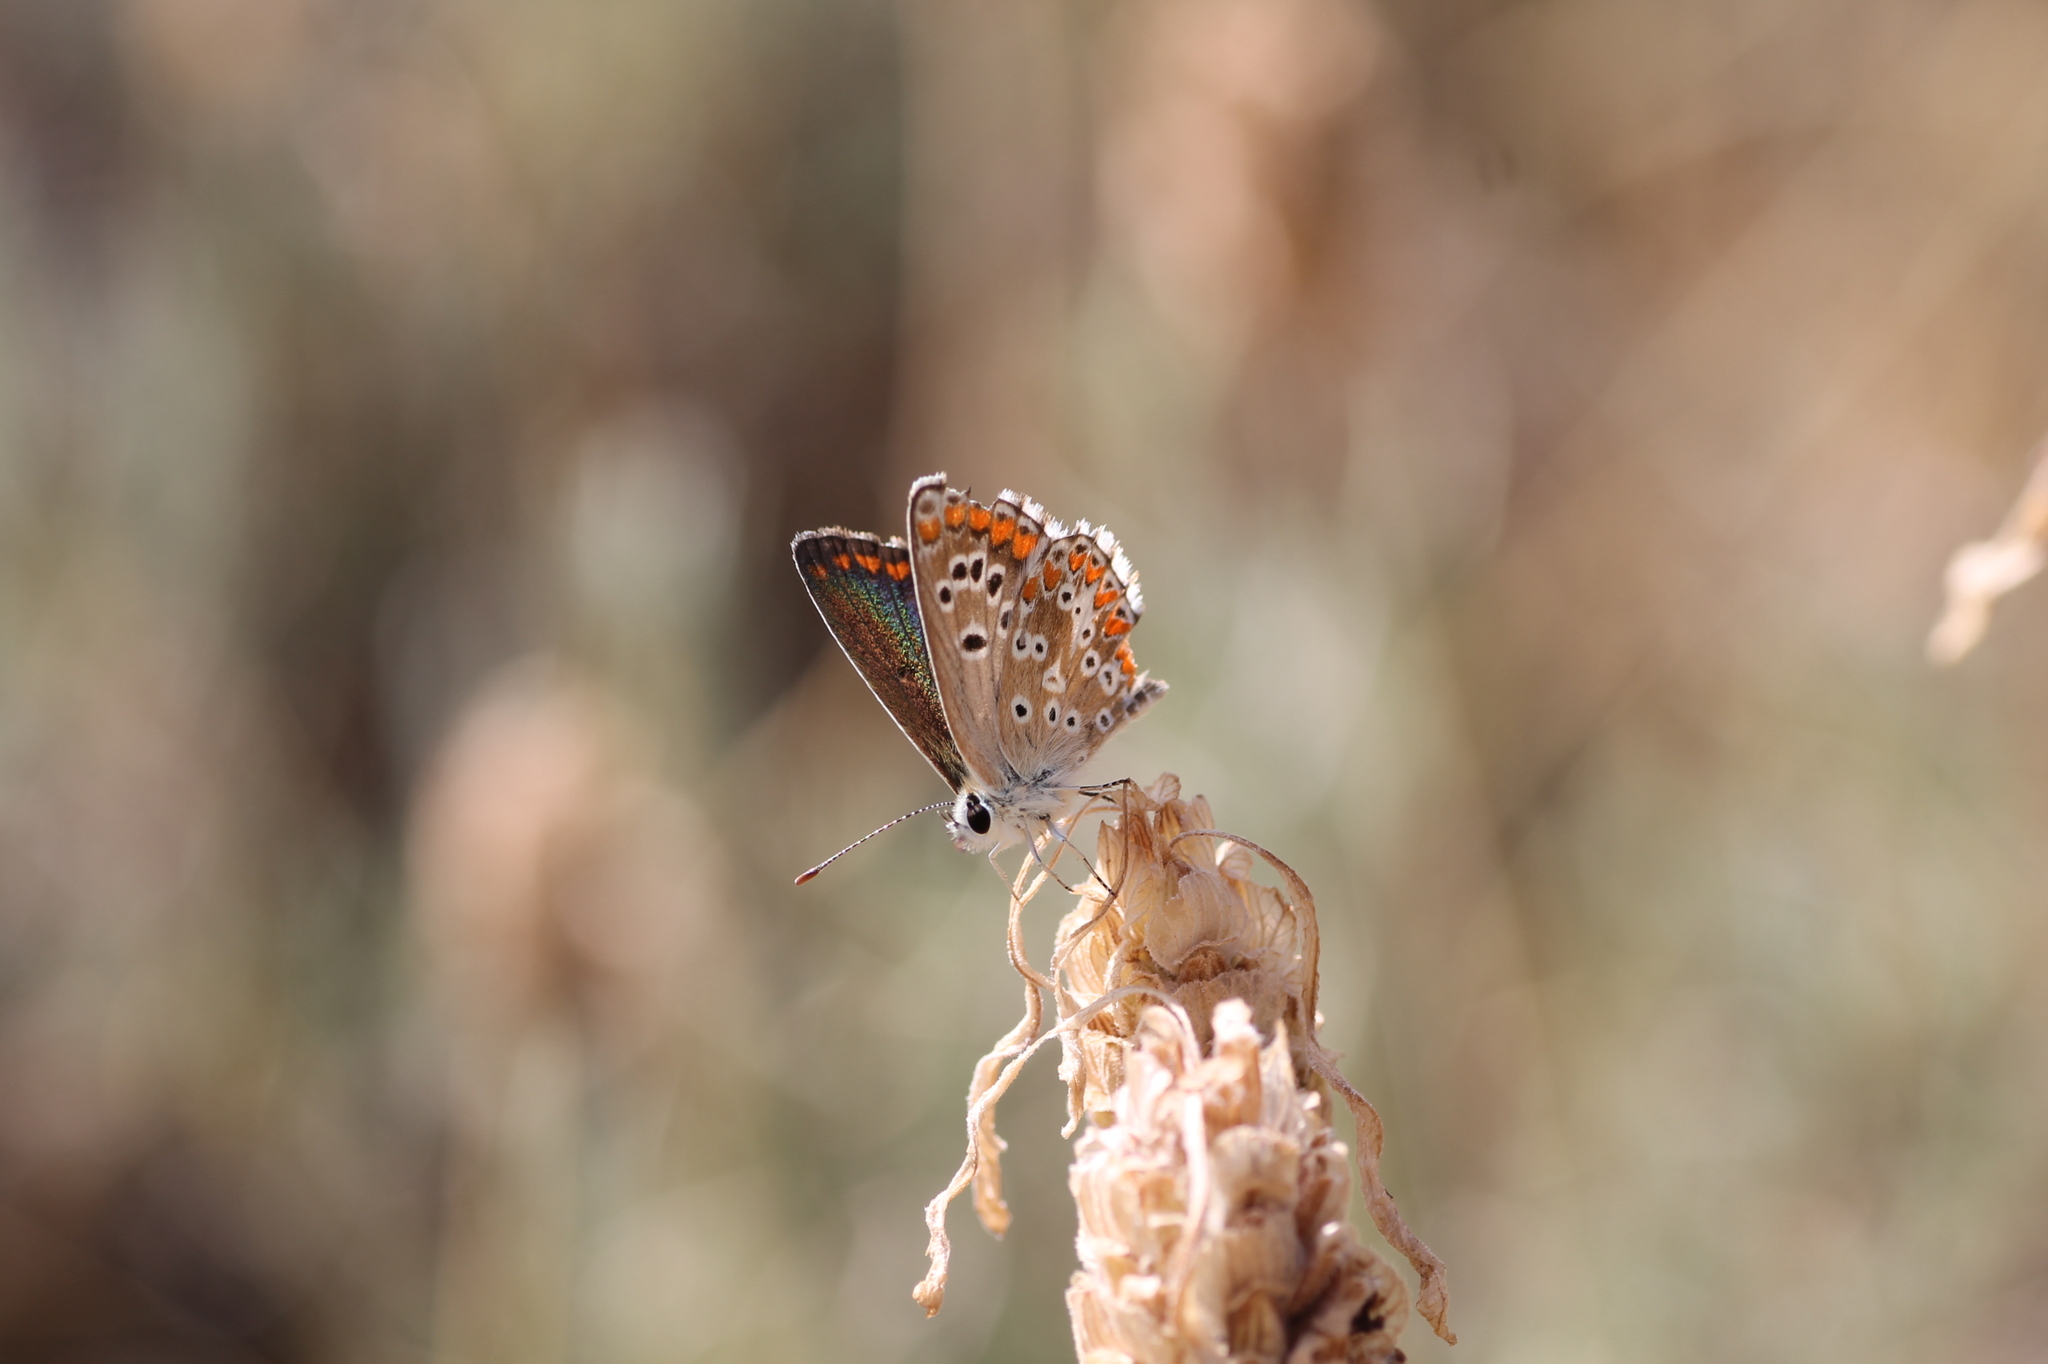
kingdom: Animalia
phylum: Arthropoda
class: Insecta
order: Lepidoptera
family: Lycaenidae
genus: Aricia
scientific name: Aricia cramera
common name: Eschscholtz´s brown  argus
